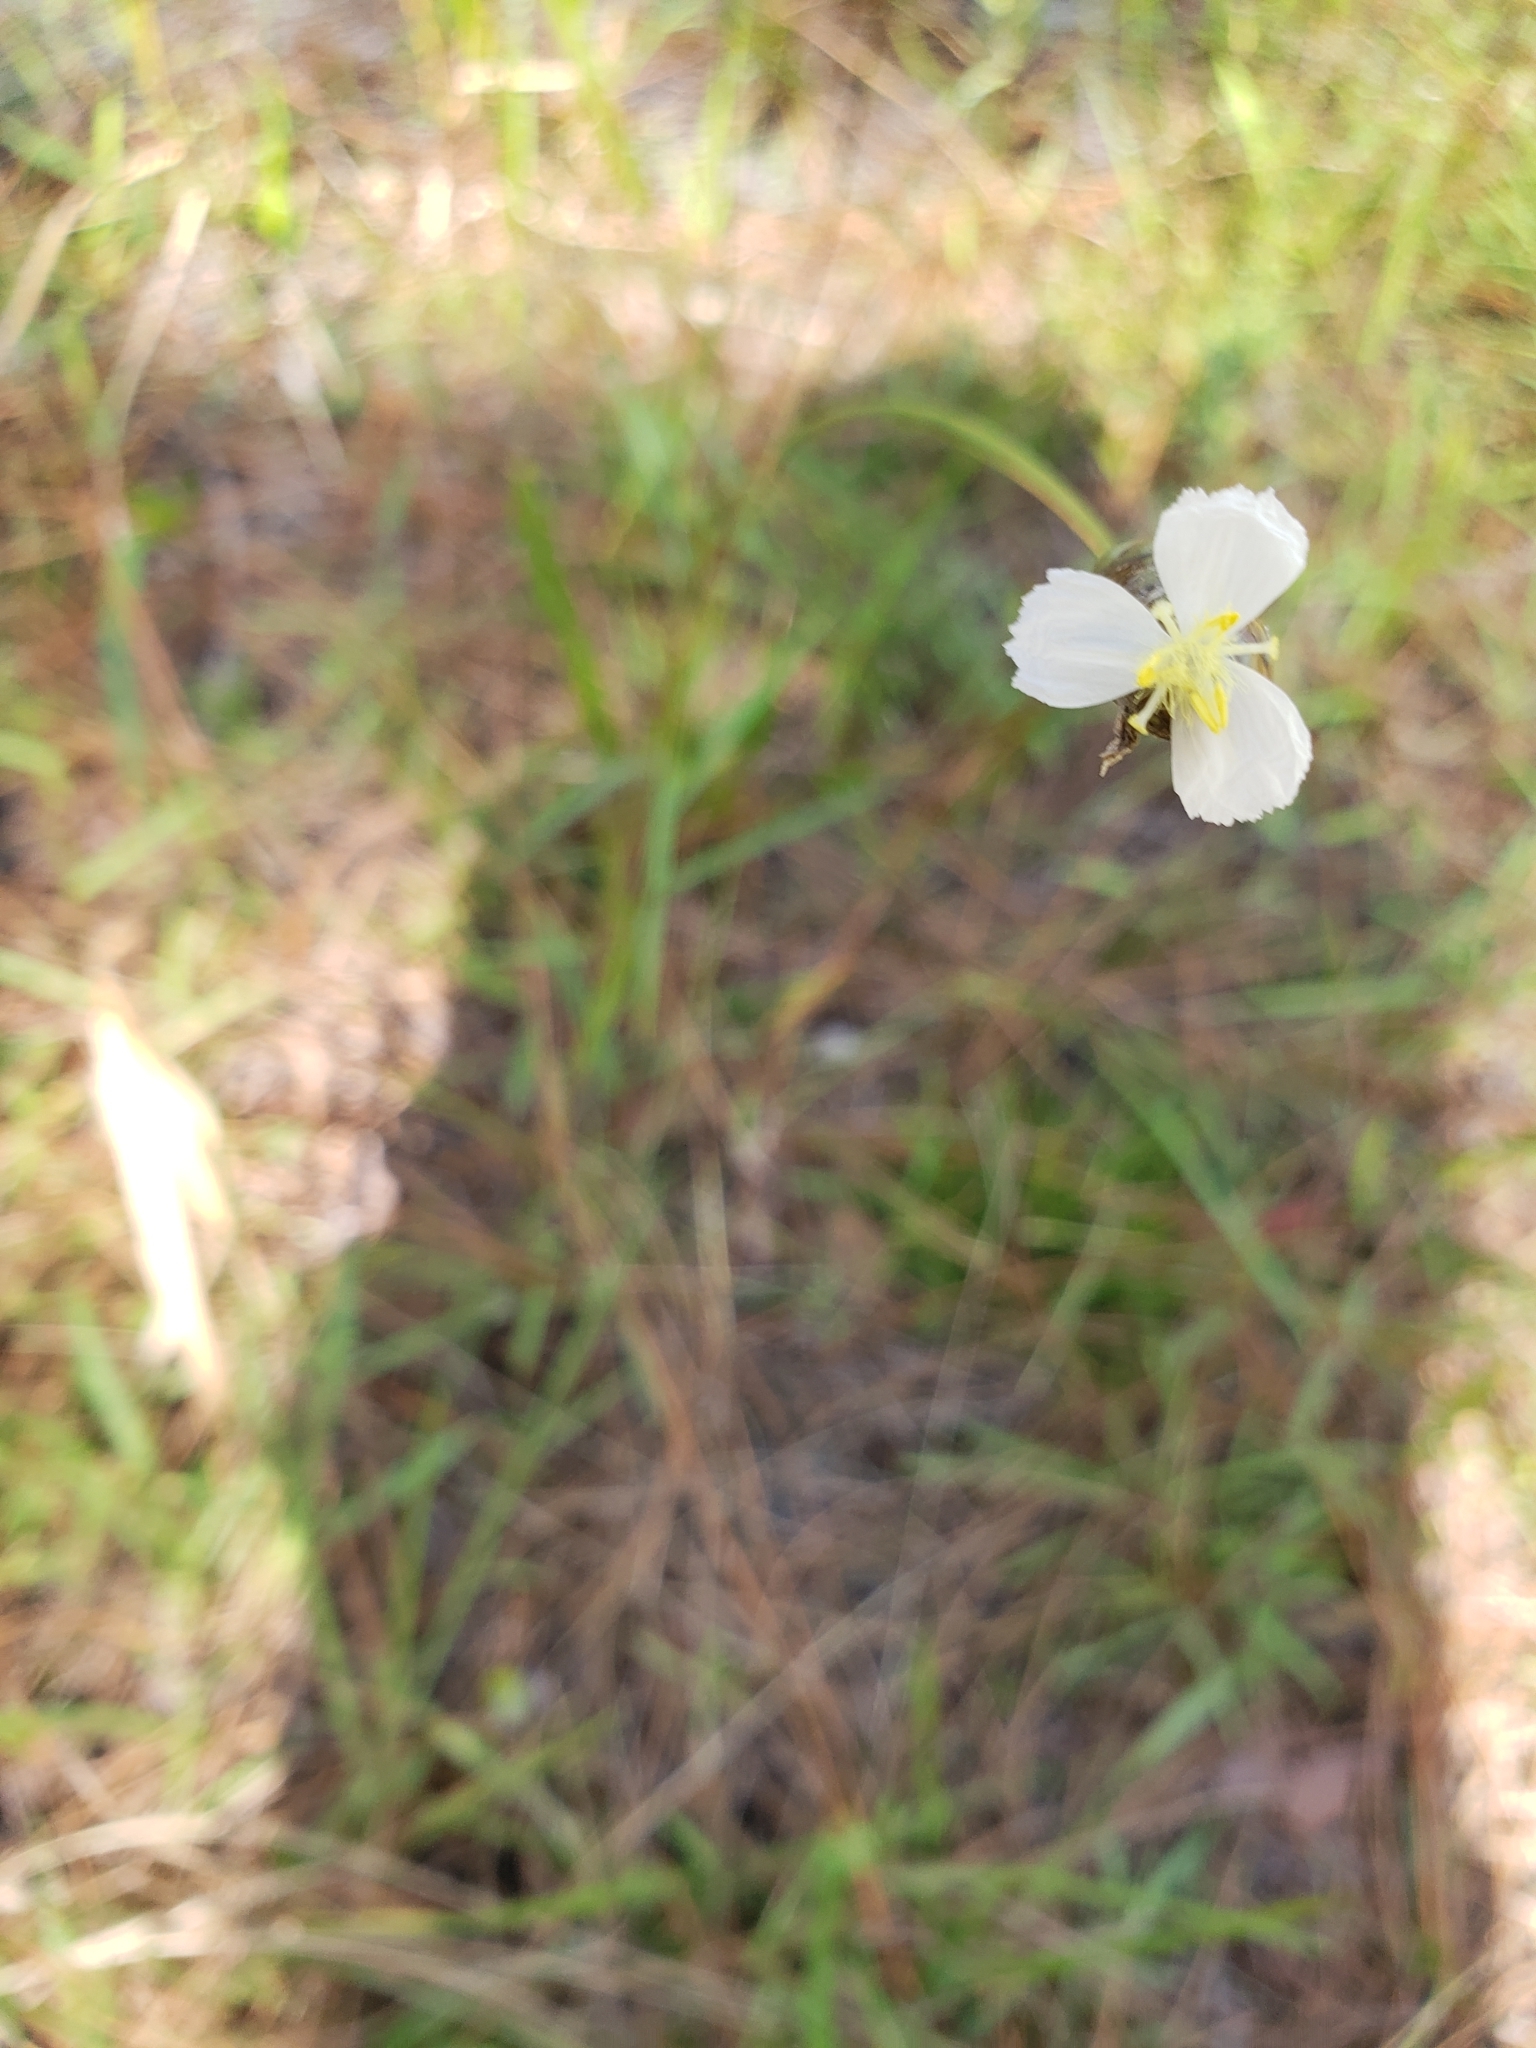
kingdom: Plantae
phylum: Tracheophyta
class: Liliopsida
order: Poales
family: Xyridaceae
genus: Xyris
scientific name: Xyris caroliniana
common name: Carolina yellow-eyed-grass
